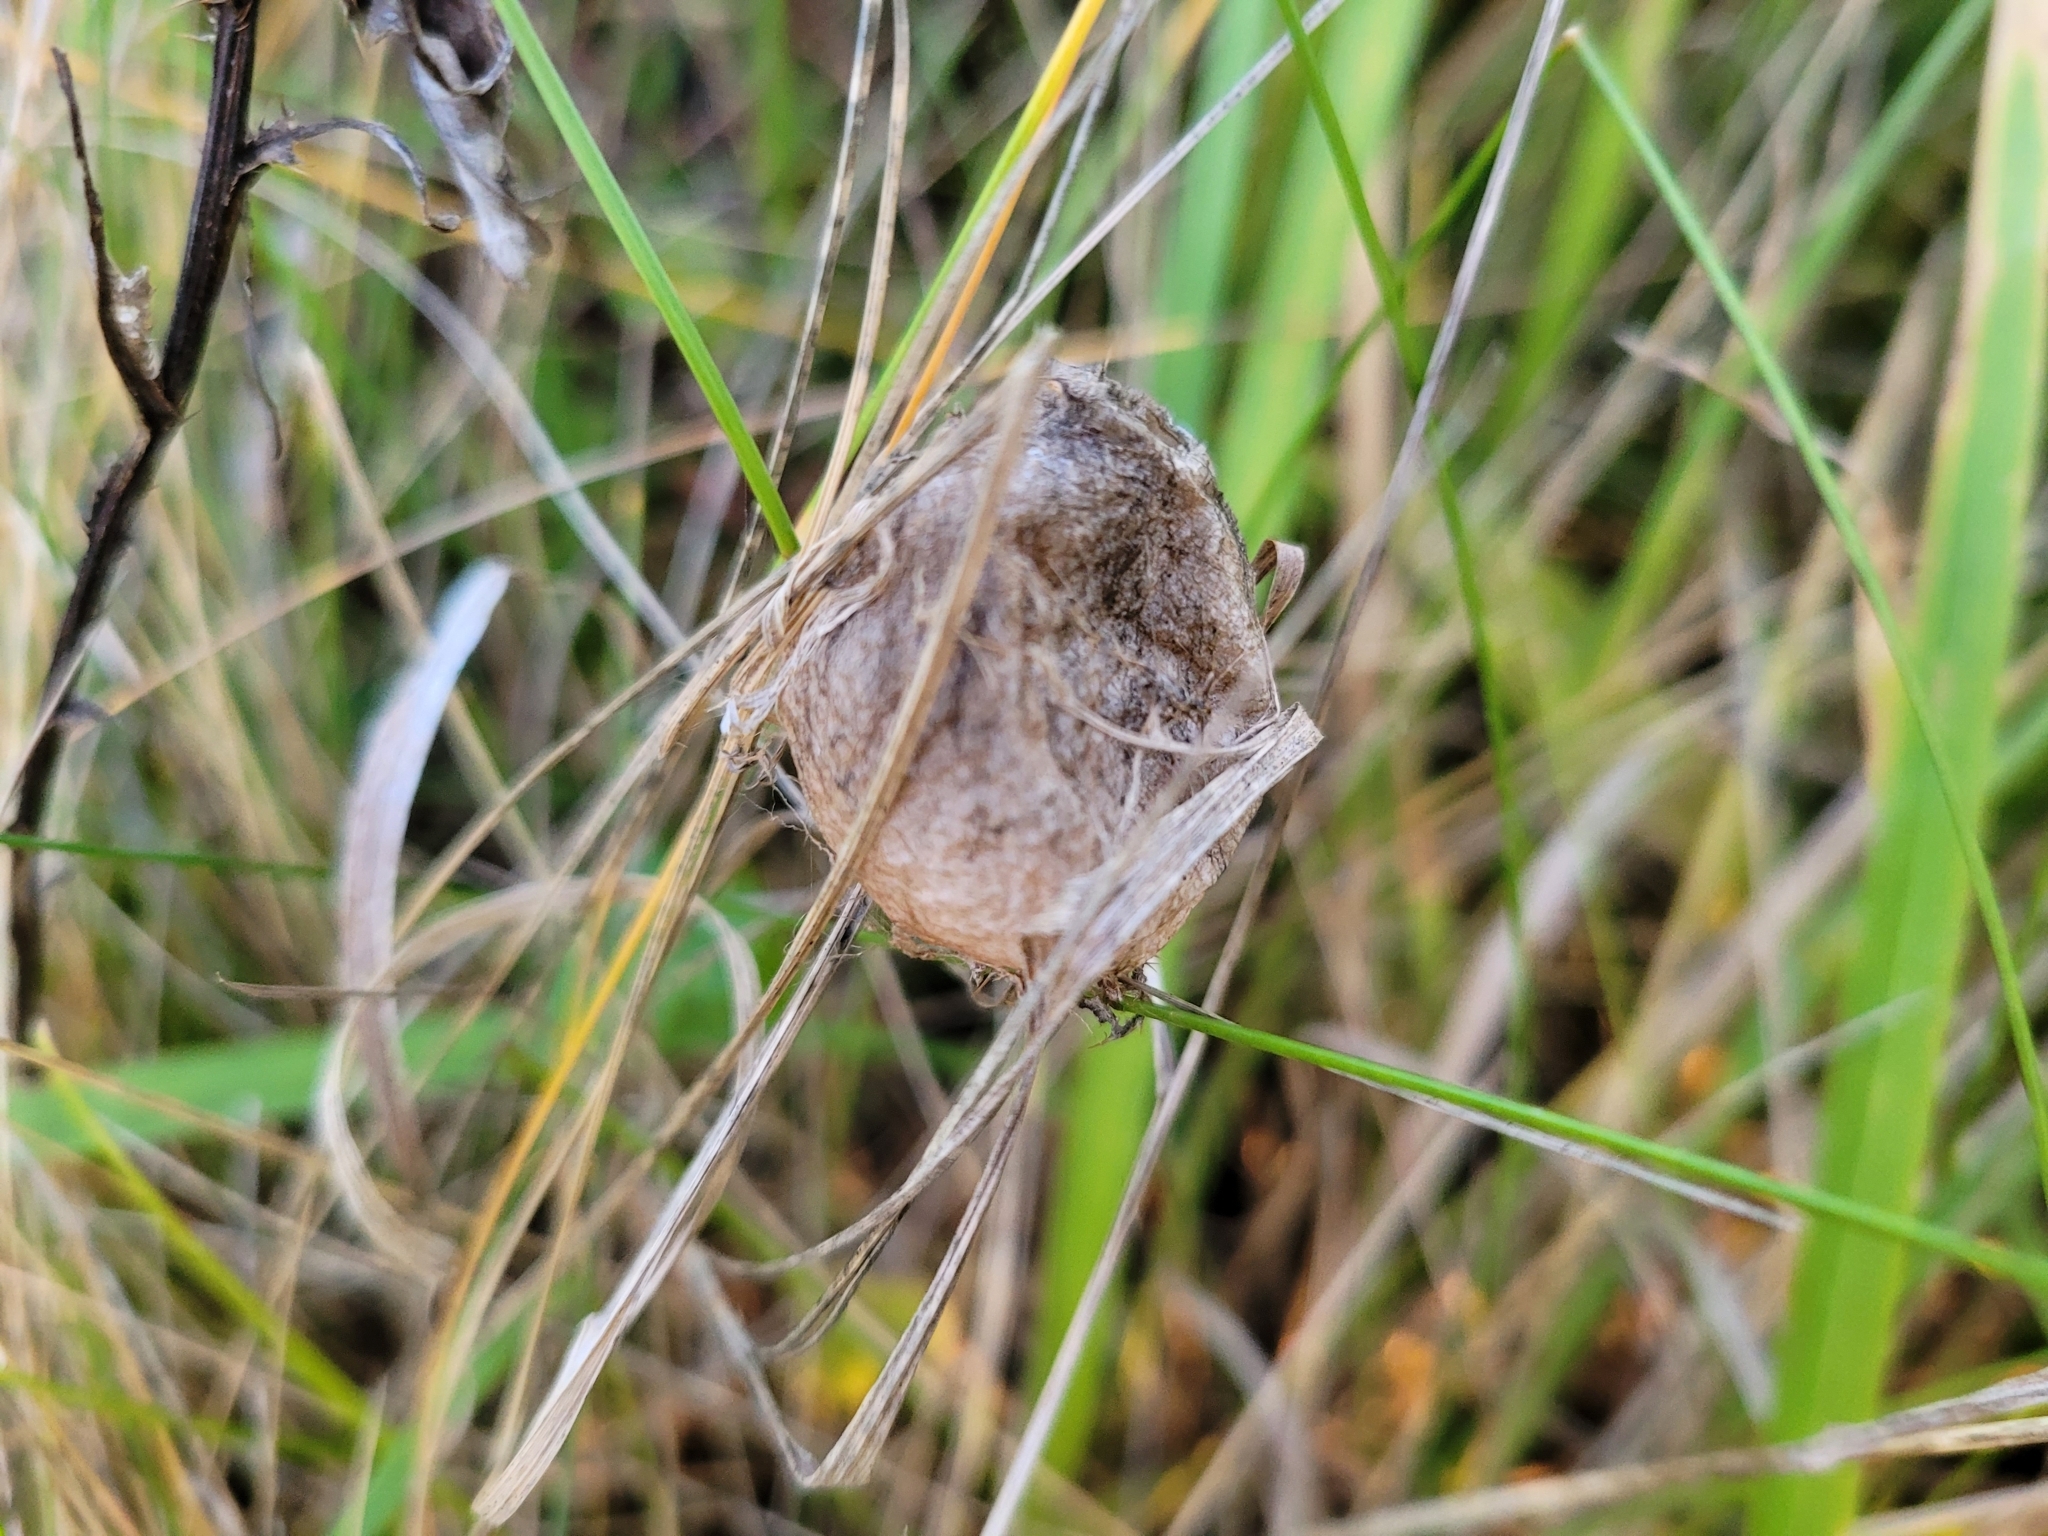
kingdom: Animalia
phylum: Arthropoda
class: Arachnida
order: Araneae
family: Araneidae
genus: Argiope
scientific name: Argiope bruennichi
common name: Wasp spider
